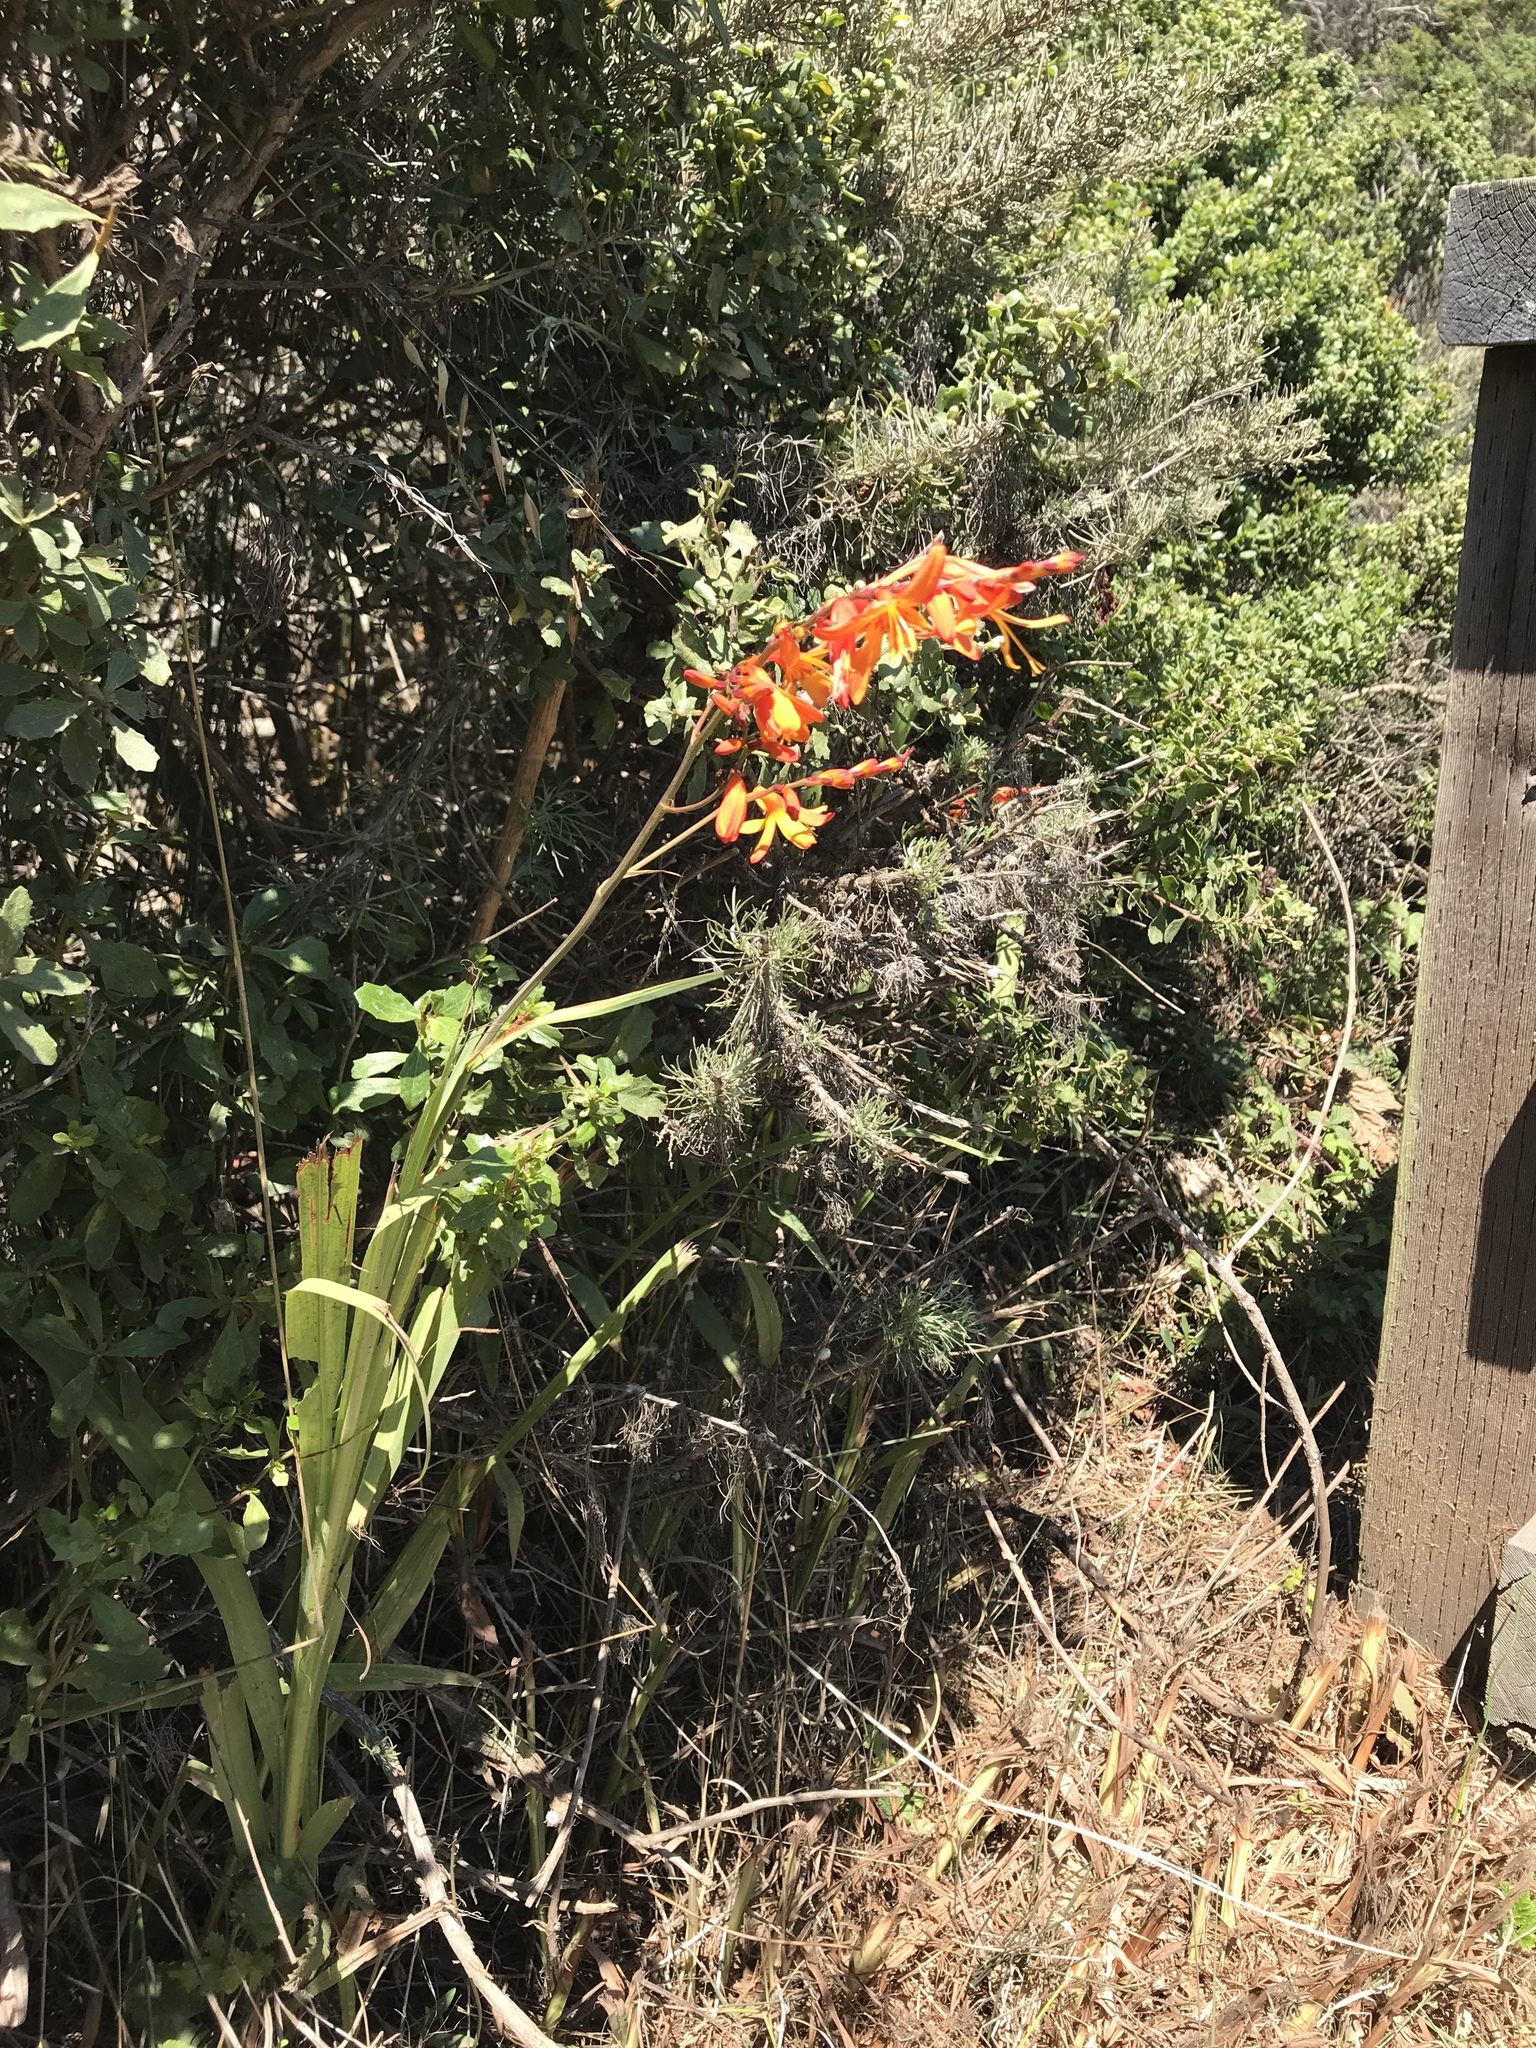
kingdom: Plantae
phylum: Tracheophyta
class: Liliopsida
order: Asparagales
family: Iridaceae
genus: Crocosmia
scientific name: Crocosmia crocosmiiflora
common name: Montbretia
